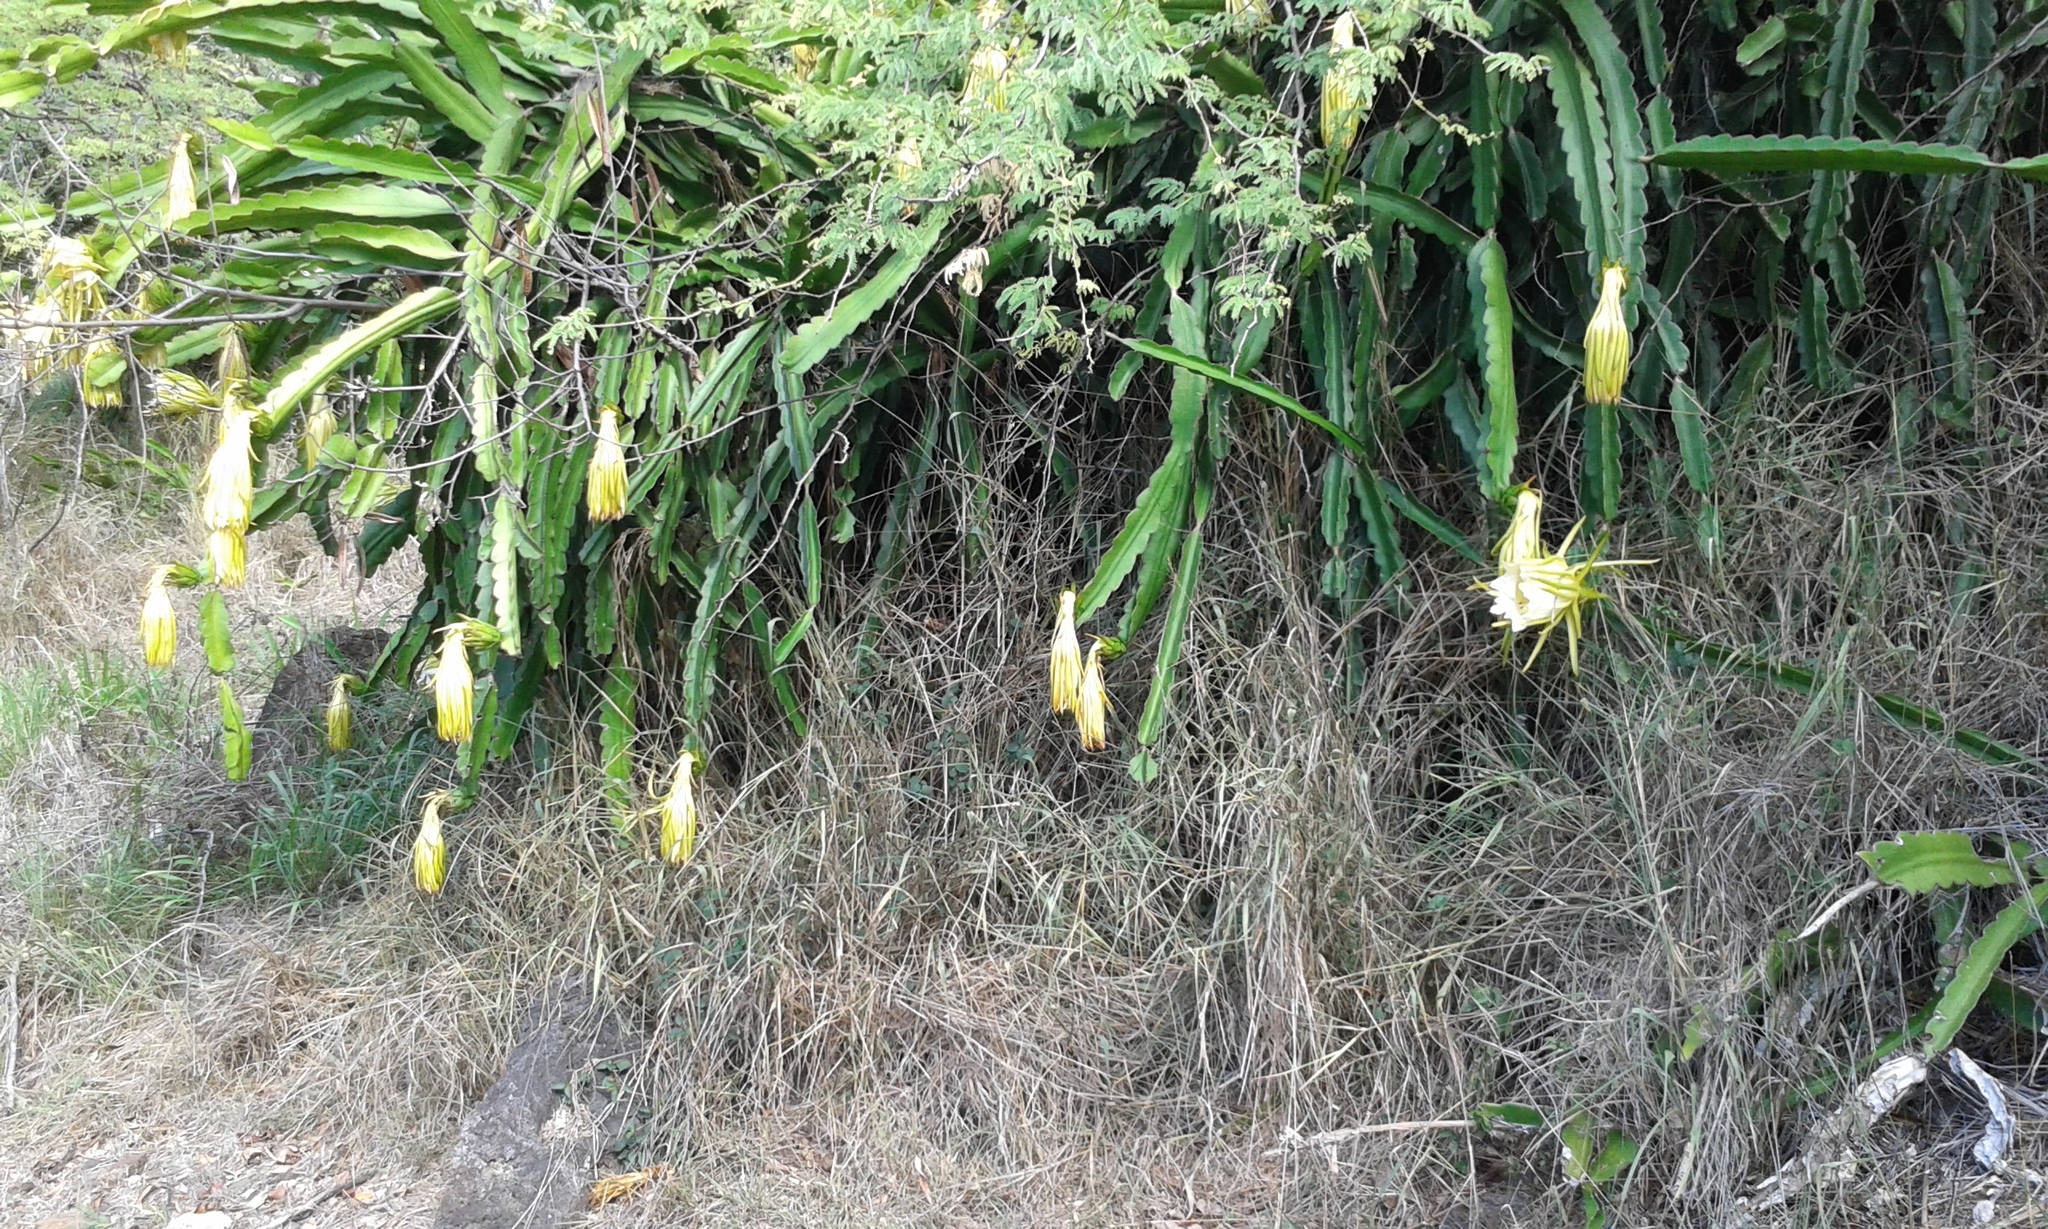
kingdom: Plantae
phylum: Tracheophyta
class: Magnoliopsida
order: Caryophyllales
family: Cactaceae
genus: Selenicereus
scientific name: Selenicereus undatus
